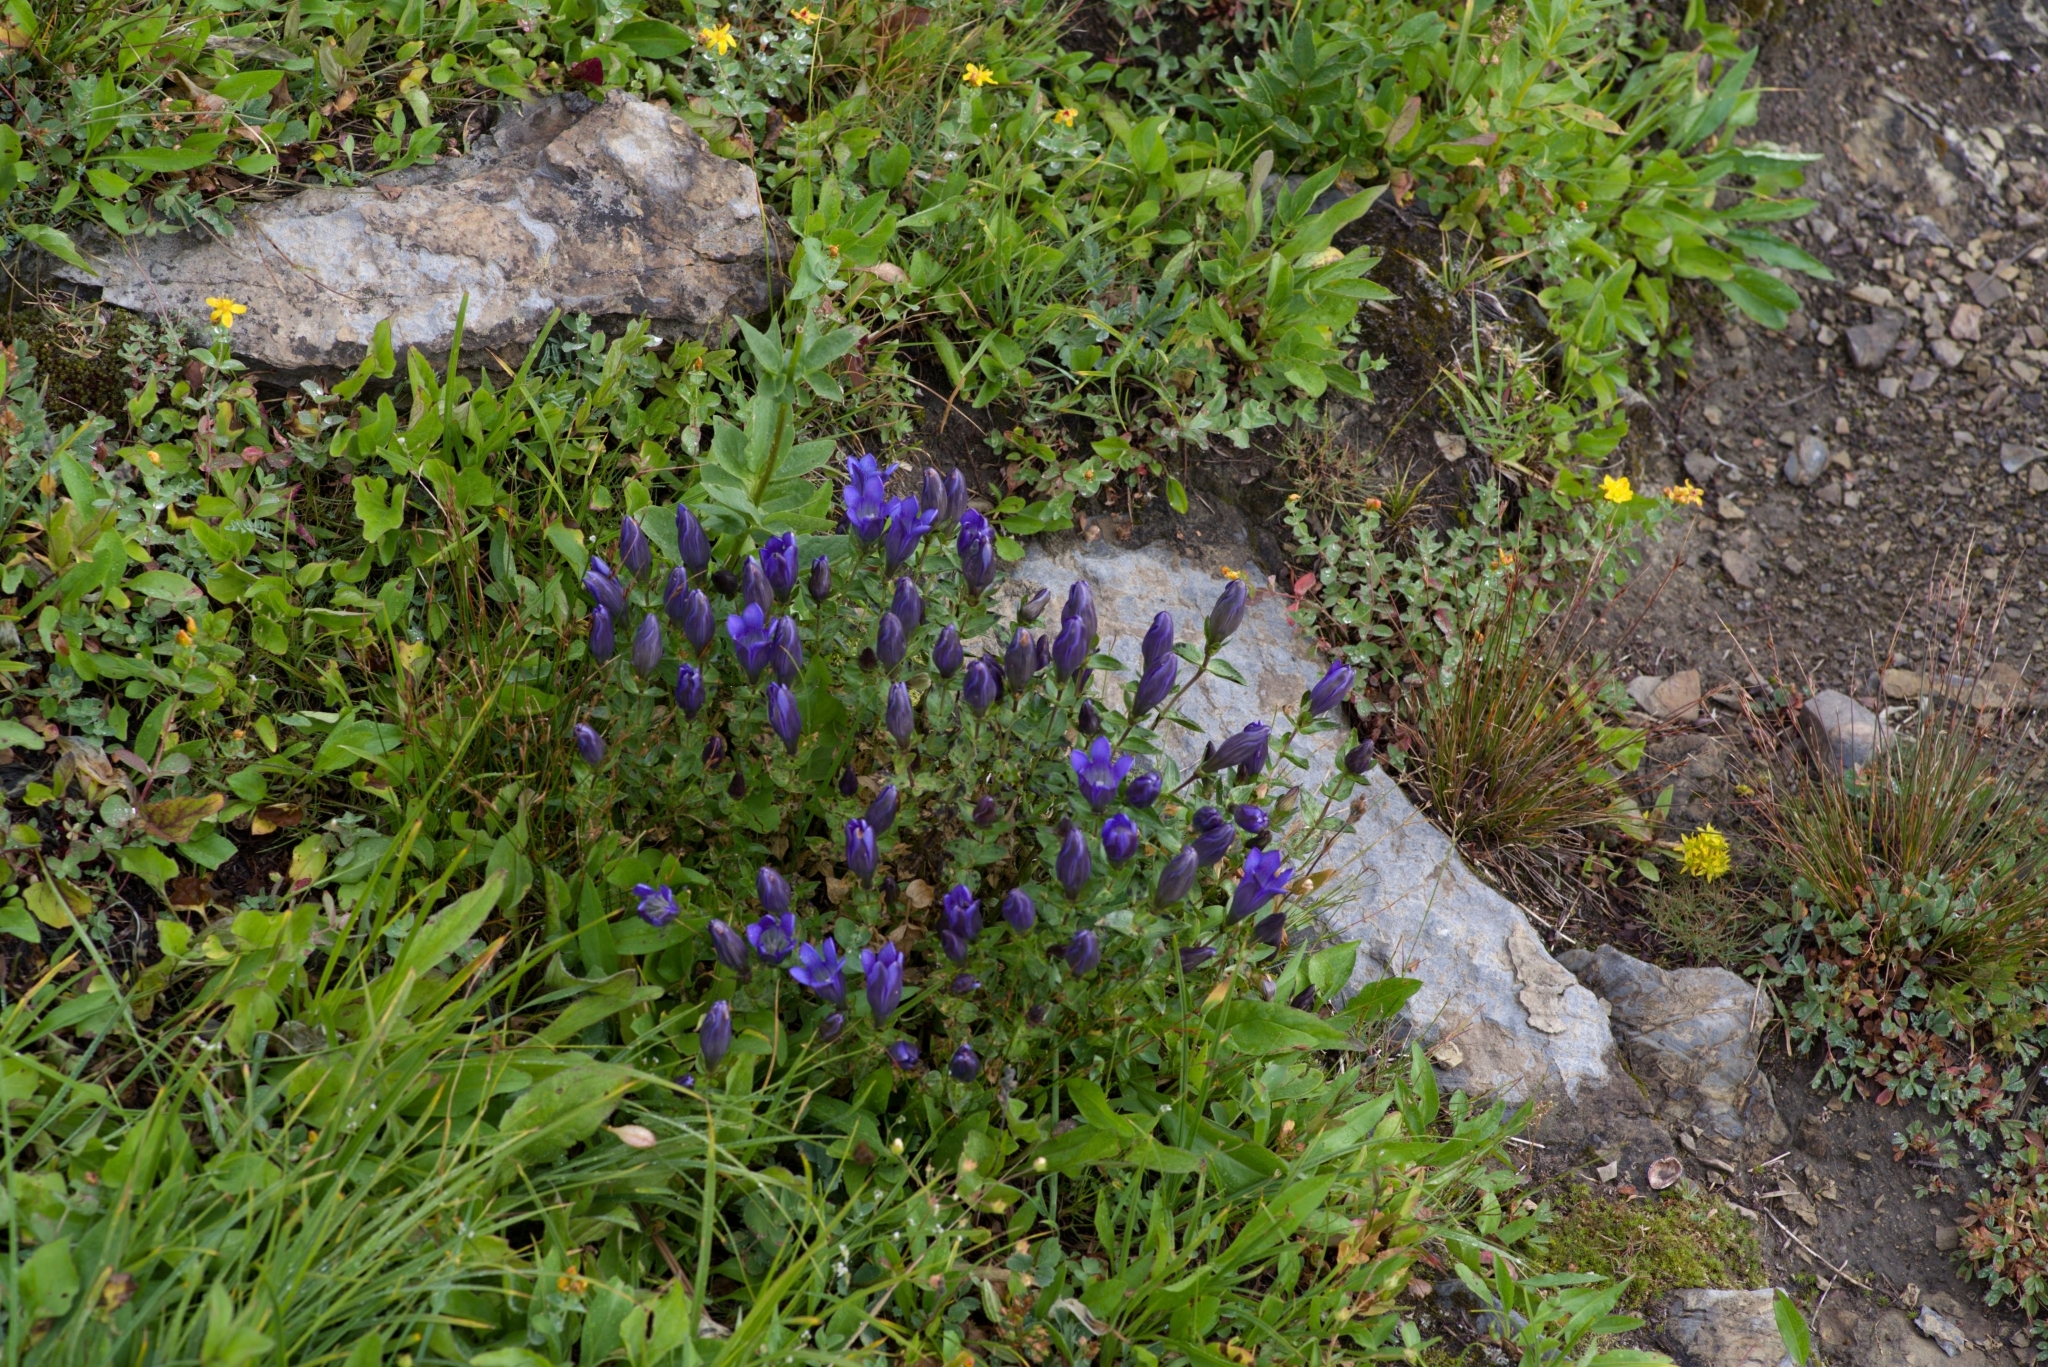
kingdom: Plantae
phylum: Tracheophyta
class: Magnoliopsida
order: Gentianales
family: Gentianaceae
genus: Gentiana
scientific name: Gentiana calycosa
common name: Rainier pleated gentian
